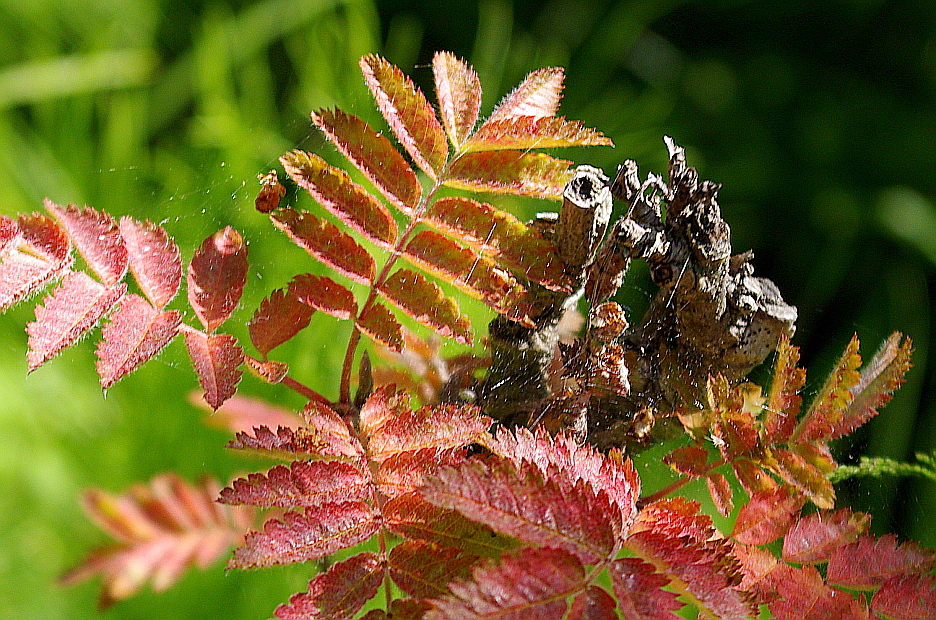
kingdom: Plantae
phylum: Tracheophyta
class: Magnoliopsida
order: Rosales
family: Rosaceae
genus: Sorbus
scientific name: Sorbus aucuparia
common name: Rowan
